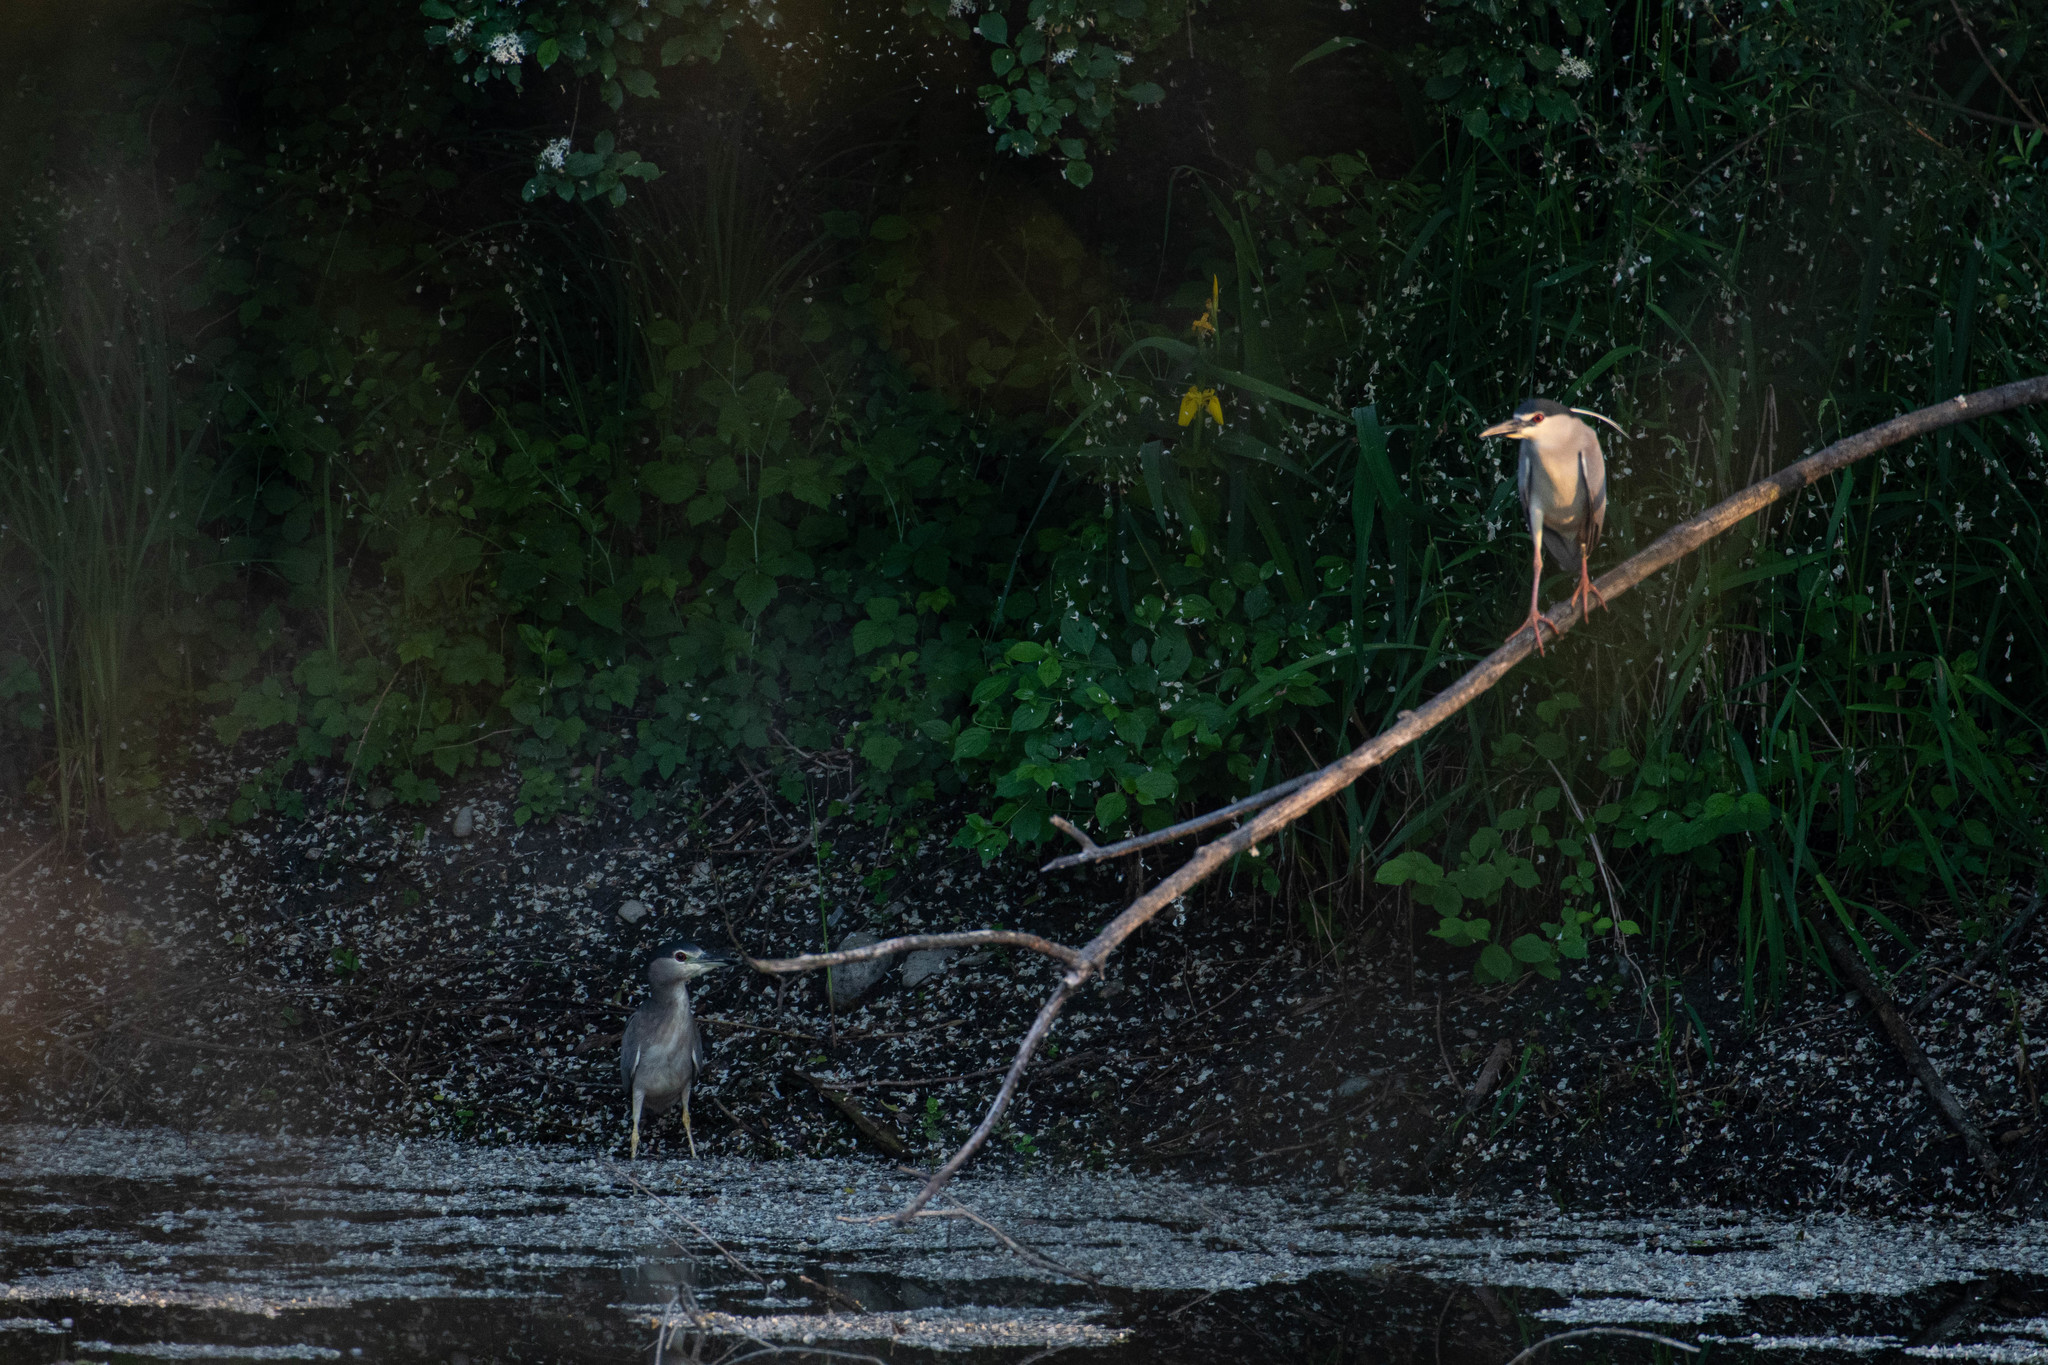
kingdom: Animalia
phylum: Chordata
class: Aves
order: Pelecaniformes
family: Ardeidae
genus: Nycticorax
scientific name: Nycticorax nycticorax
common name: Black-crowned night heron
